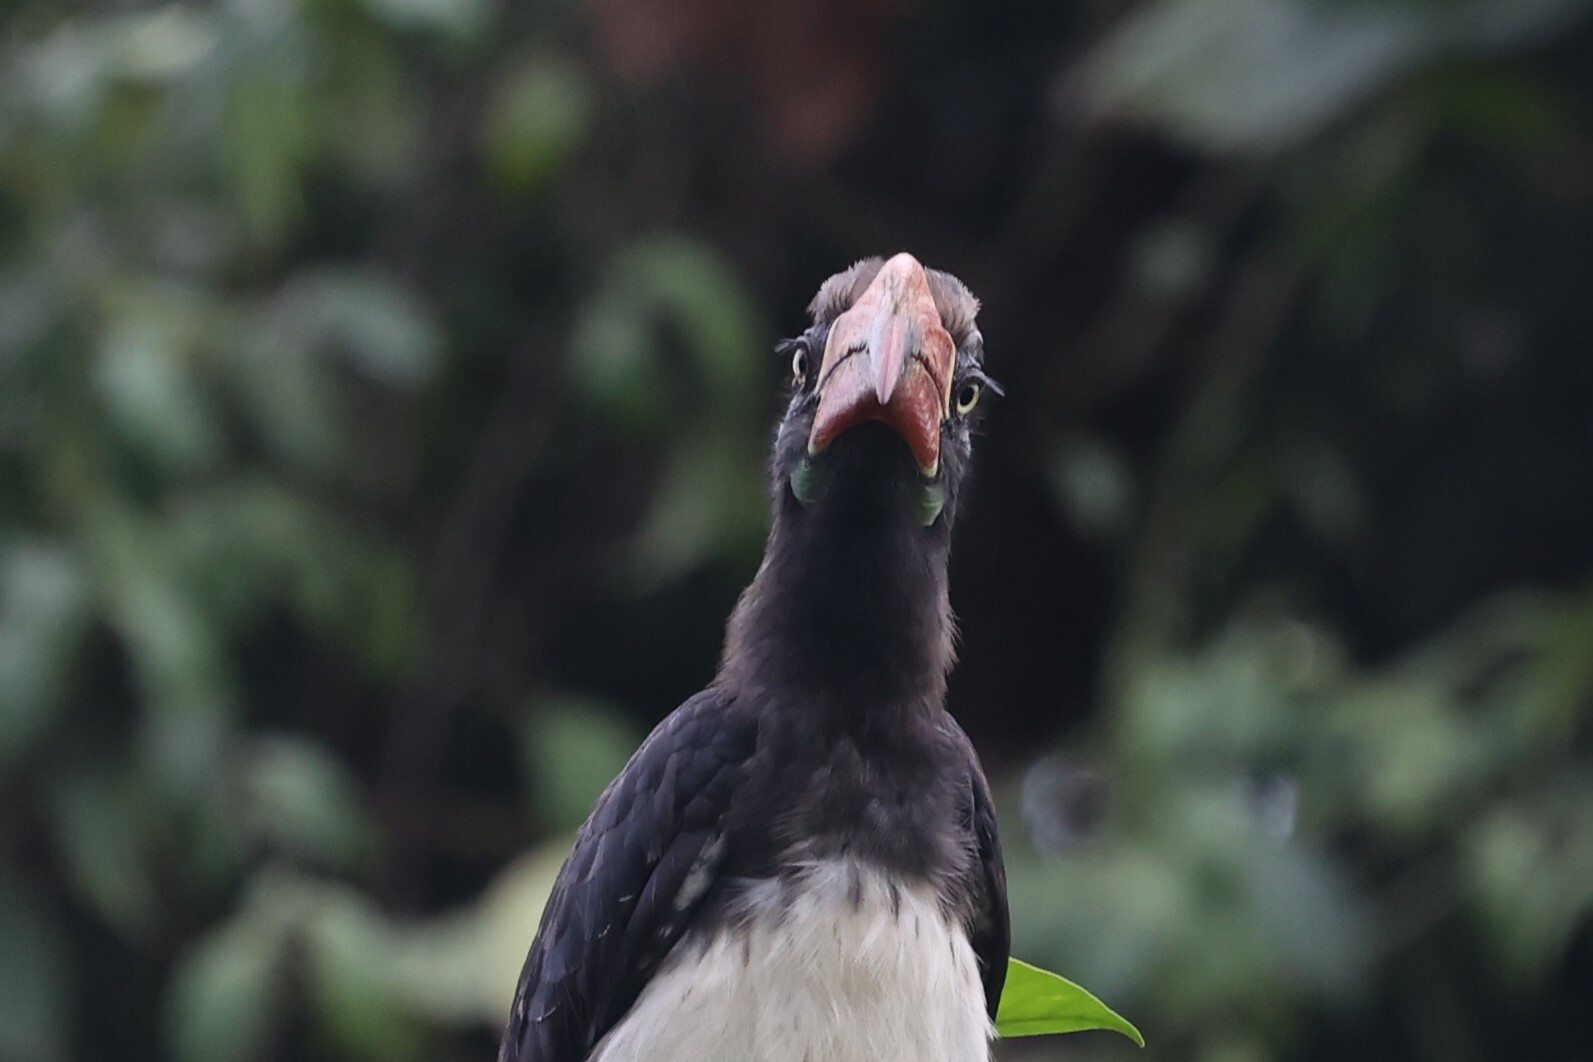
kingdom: Animalia
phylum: Chordata
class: Aves
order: Bucerotiformes
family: Bucerotidae
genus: Lophoceros
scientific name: Lophoceros alboterminatus
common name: Crowned hornbill
